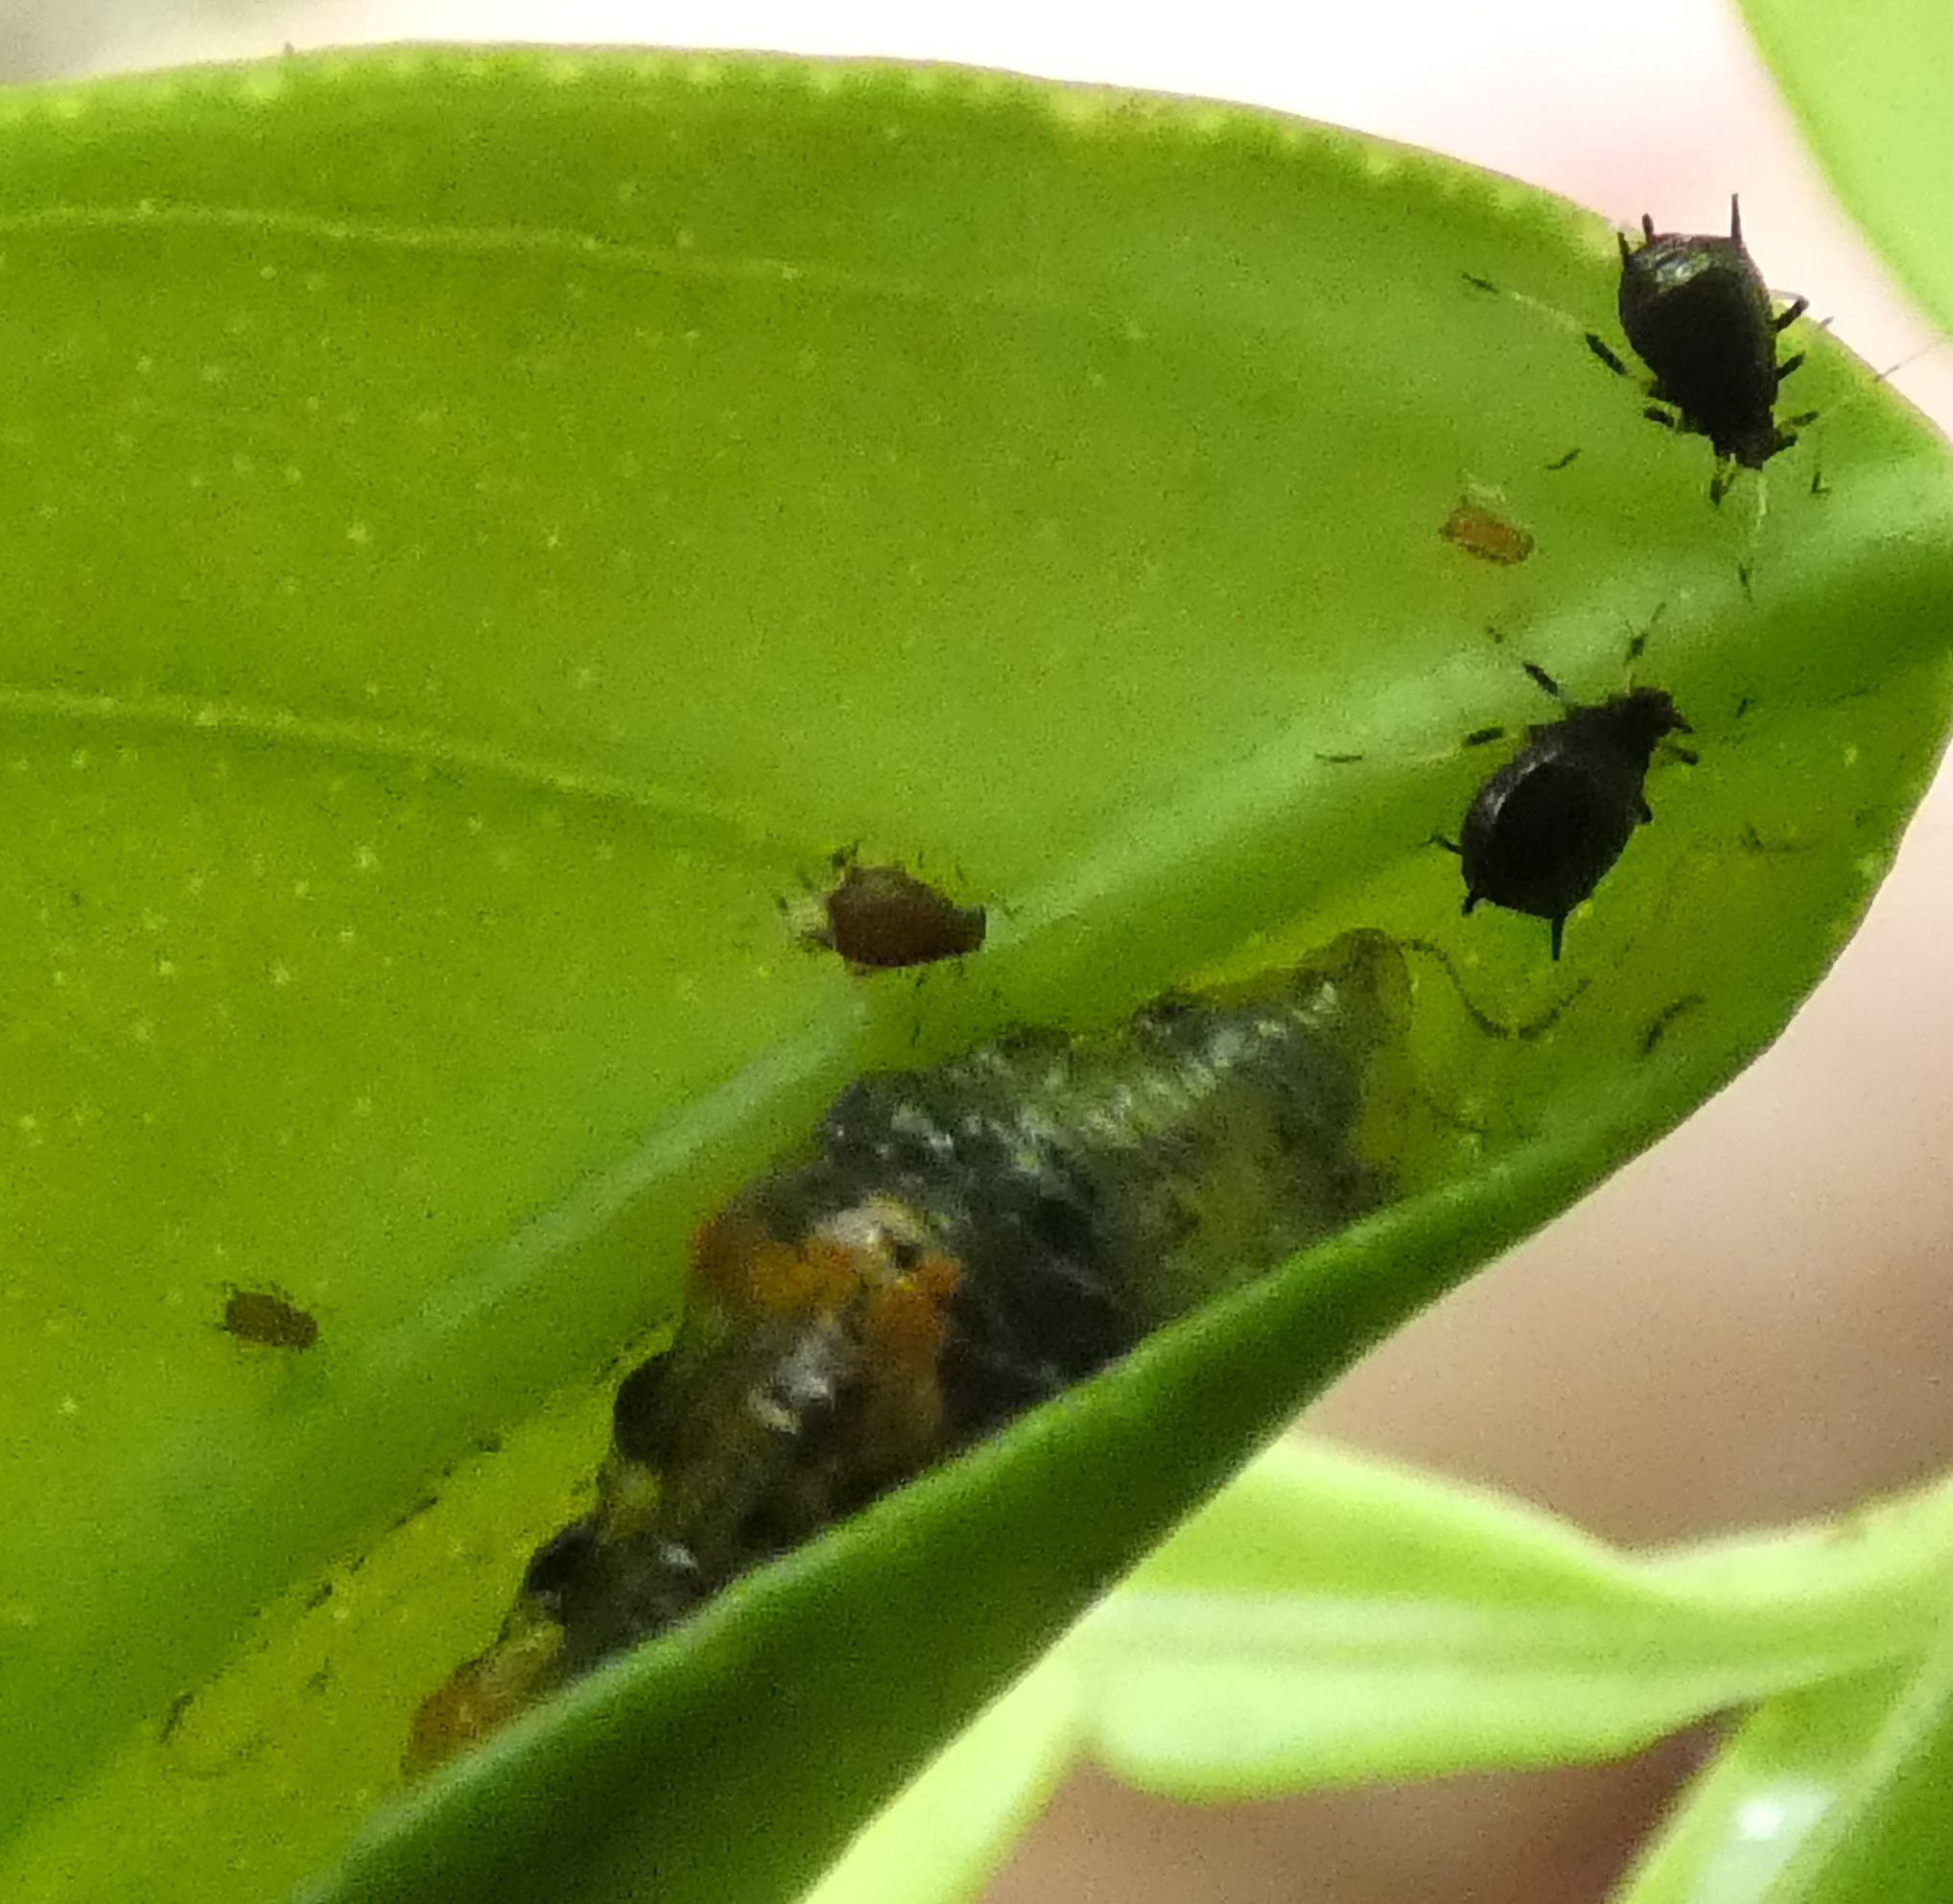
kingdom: Animalia
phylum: Arthropoda
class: Insecta
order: Diptera
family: Syrphidae
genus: Ocyptamus
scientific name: Ocyptamus gastrostactus
